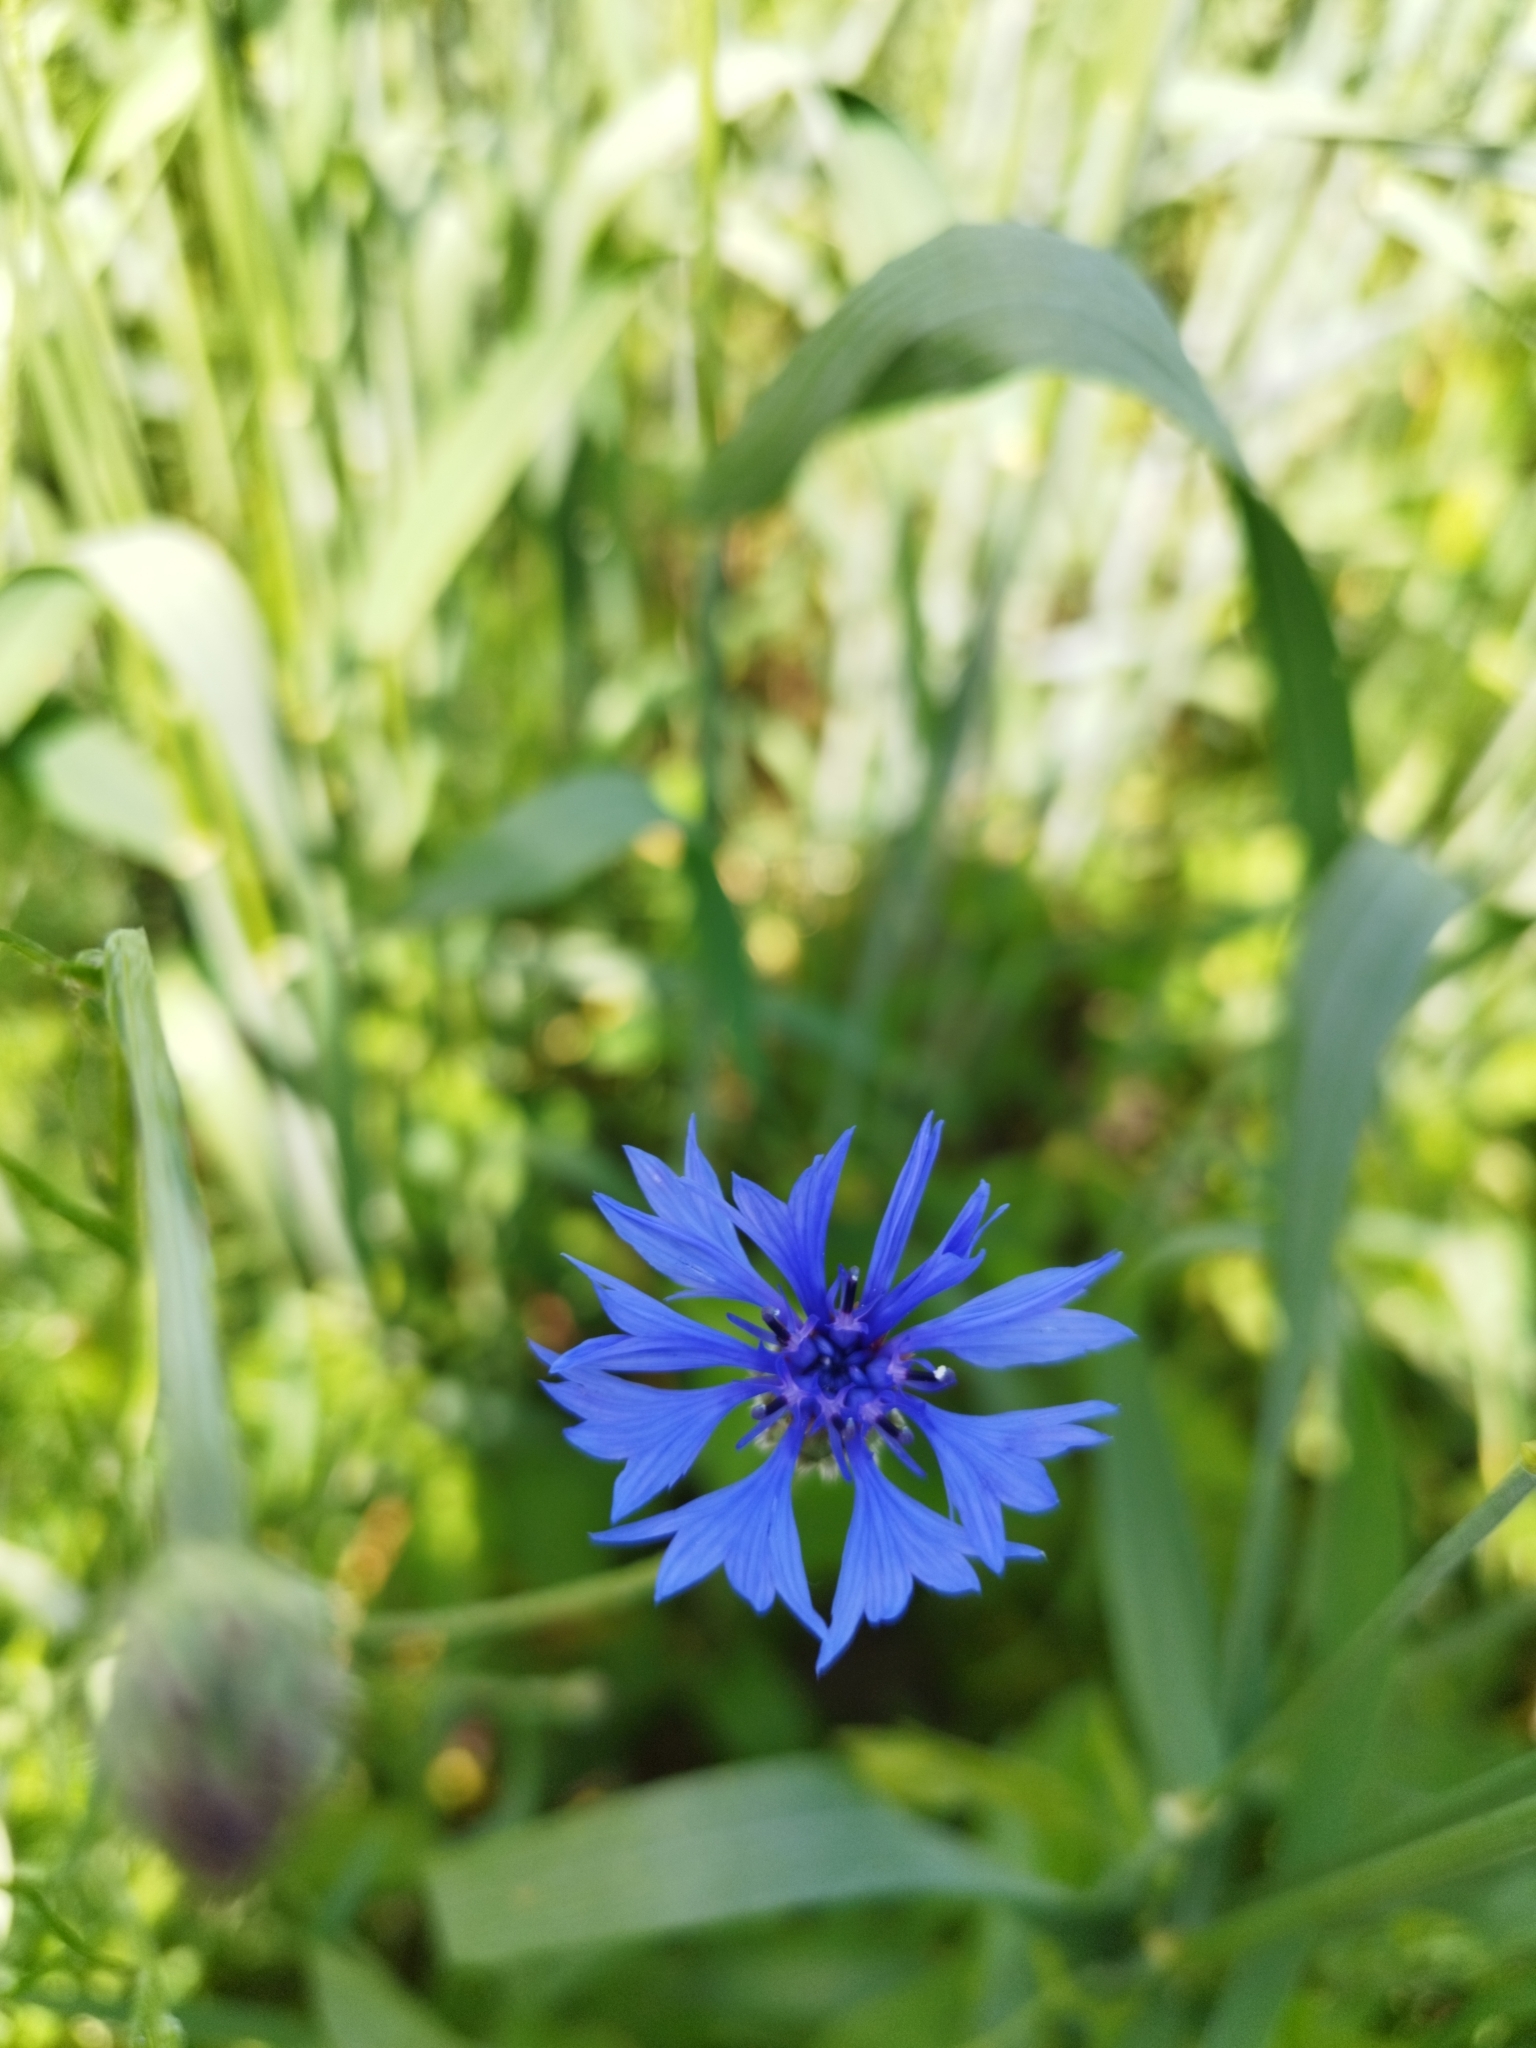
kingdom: Plantae
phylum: Tracheophyta
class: Magnoliopsida
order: Asterales
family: Asteraceae
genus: Centaurea
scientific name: Centaurea cyanus
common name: Cornflower
